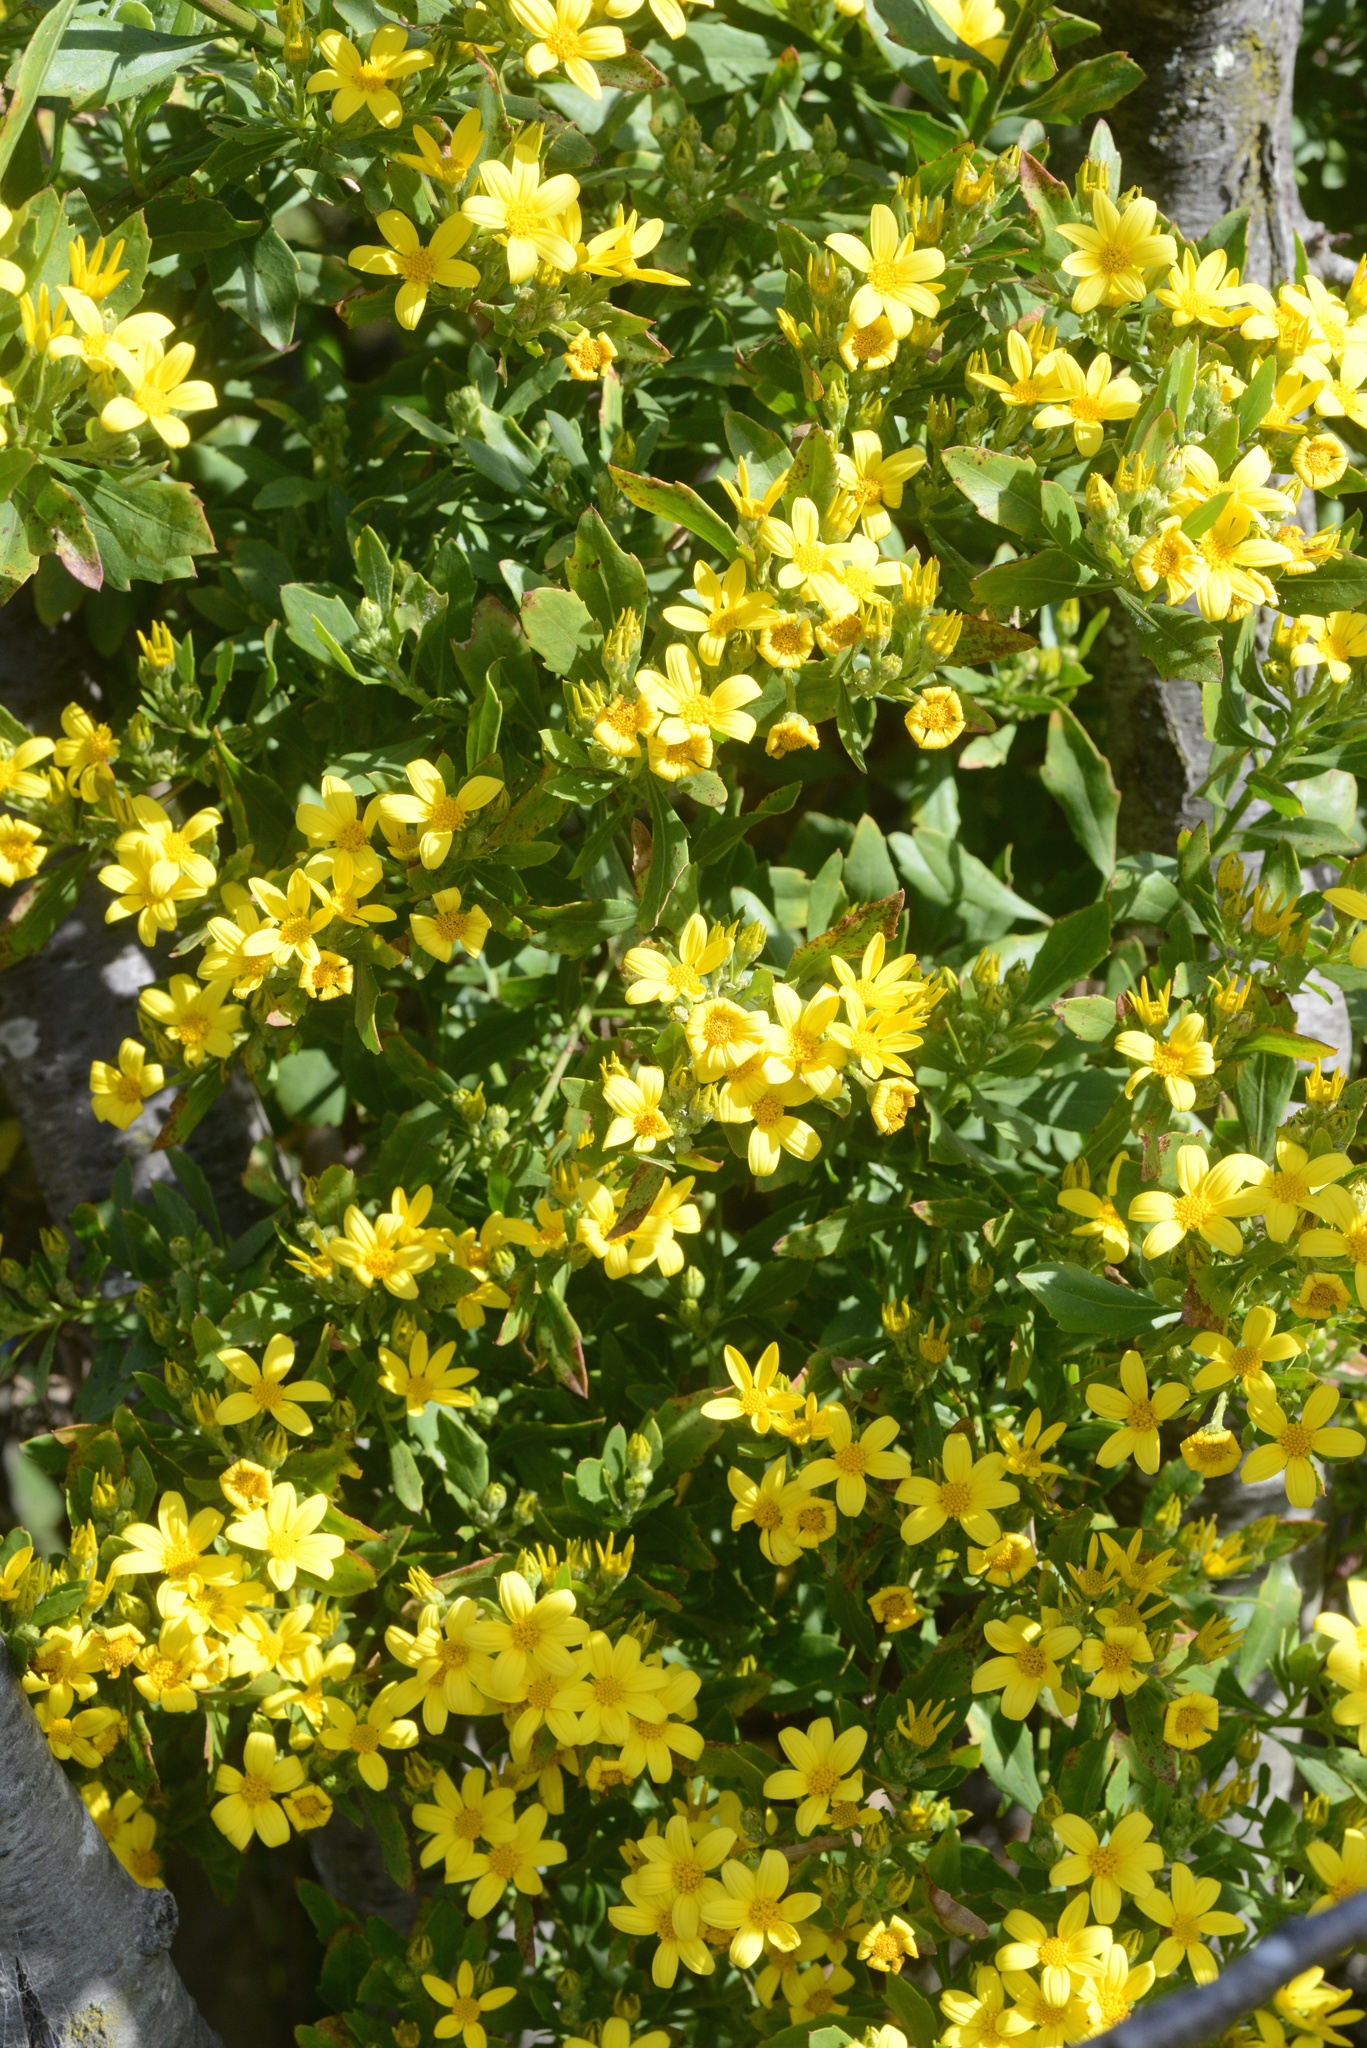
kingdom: Plantae
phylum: Tracheophyta
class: Magnoliopsida
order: Asterales
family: Asteraceae
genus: Osteospermum
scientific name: Osteospermum moniliferum
